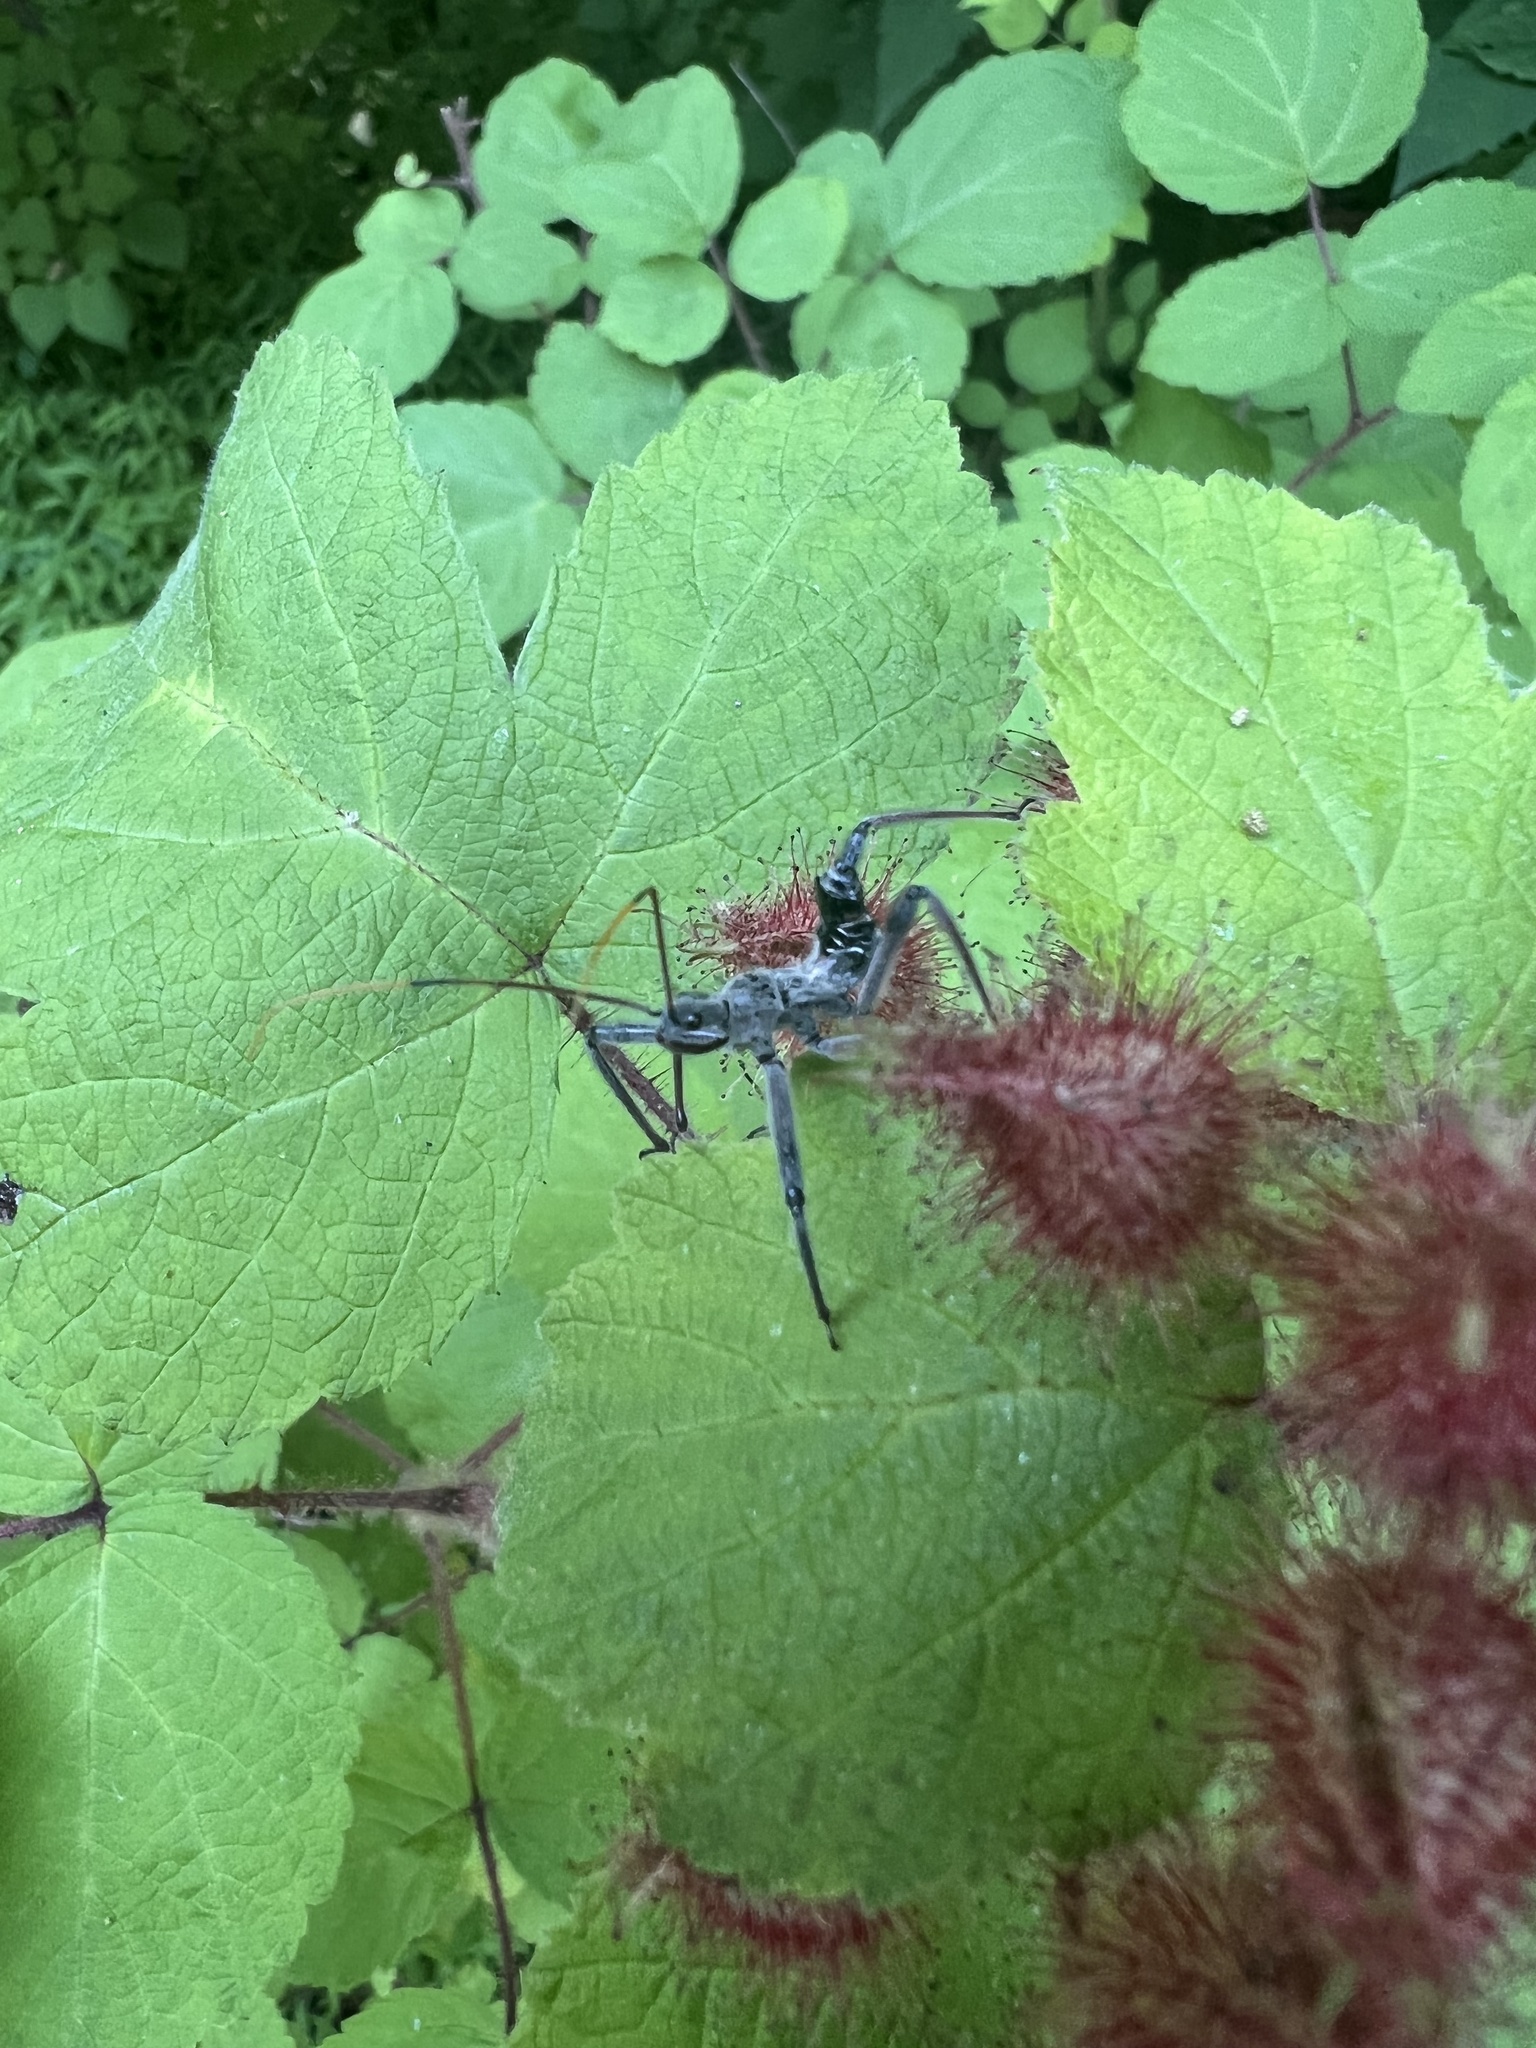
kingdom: Animalia
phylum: Arthropoda
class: Insecta
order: Hemiptera
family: Reduviidae
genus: Arilus
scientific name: Arilus cristatus
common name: North american wheel bug
